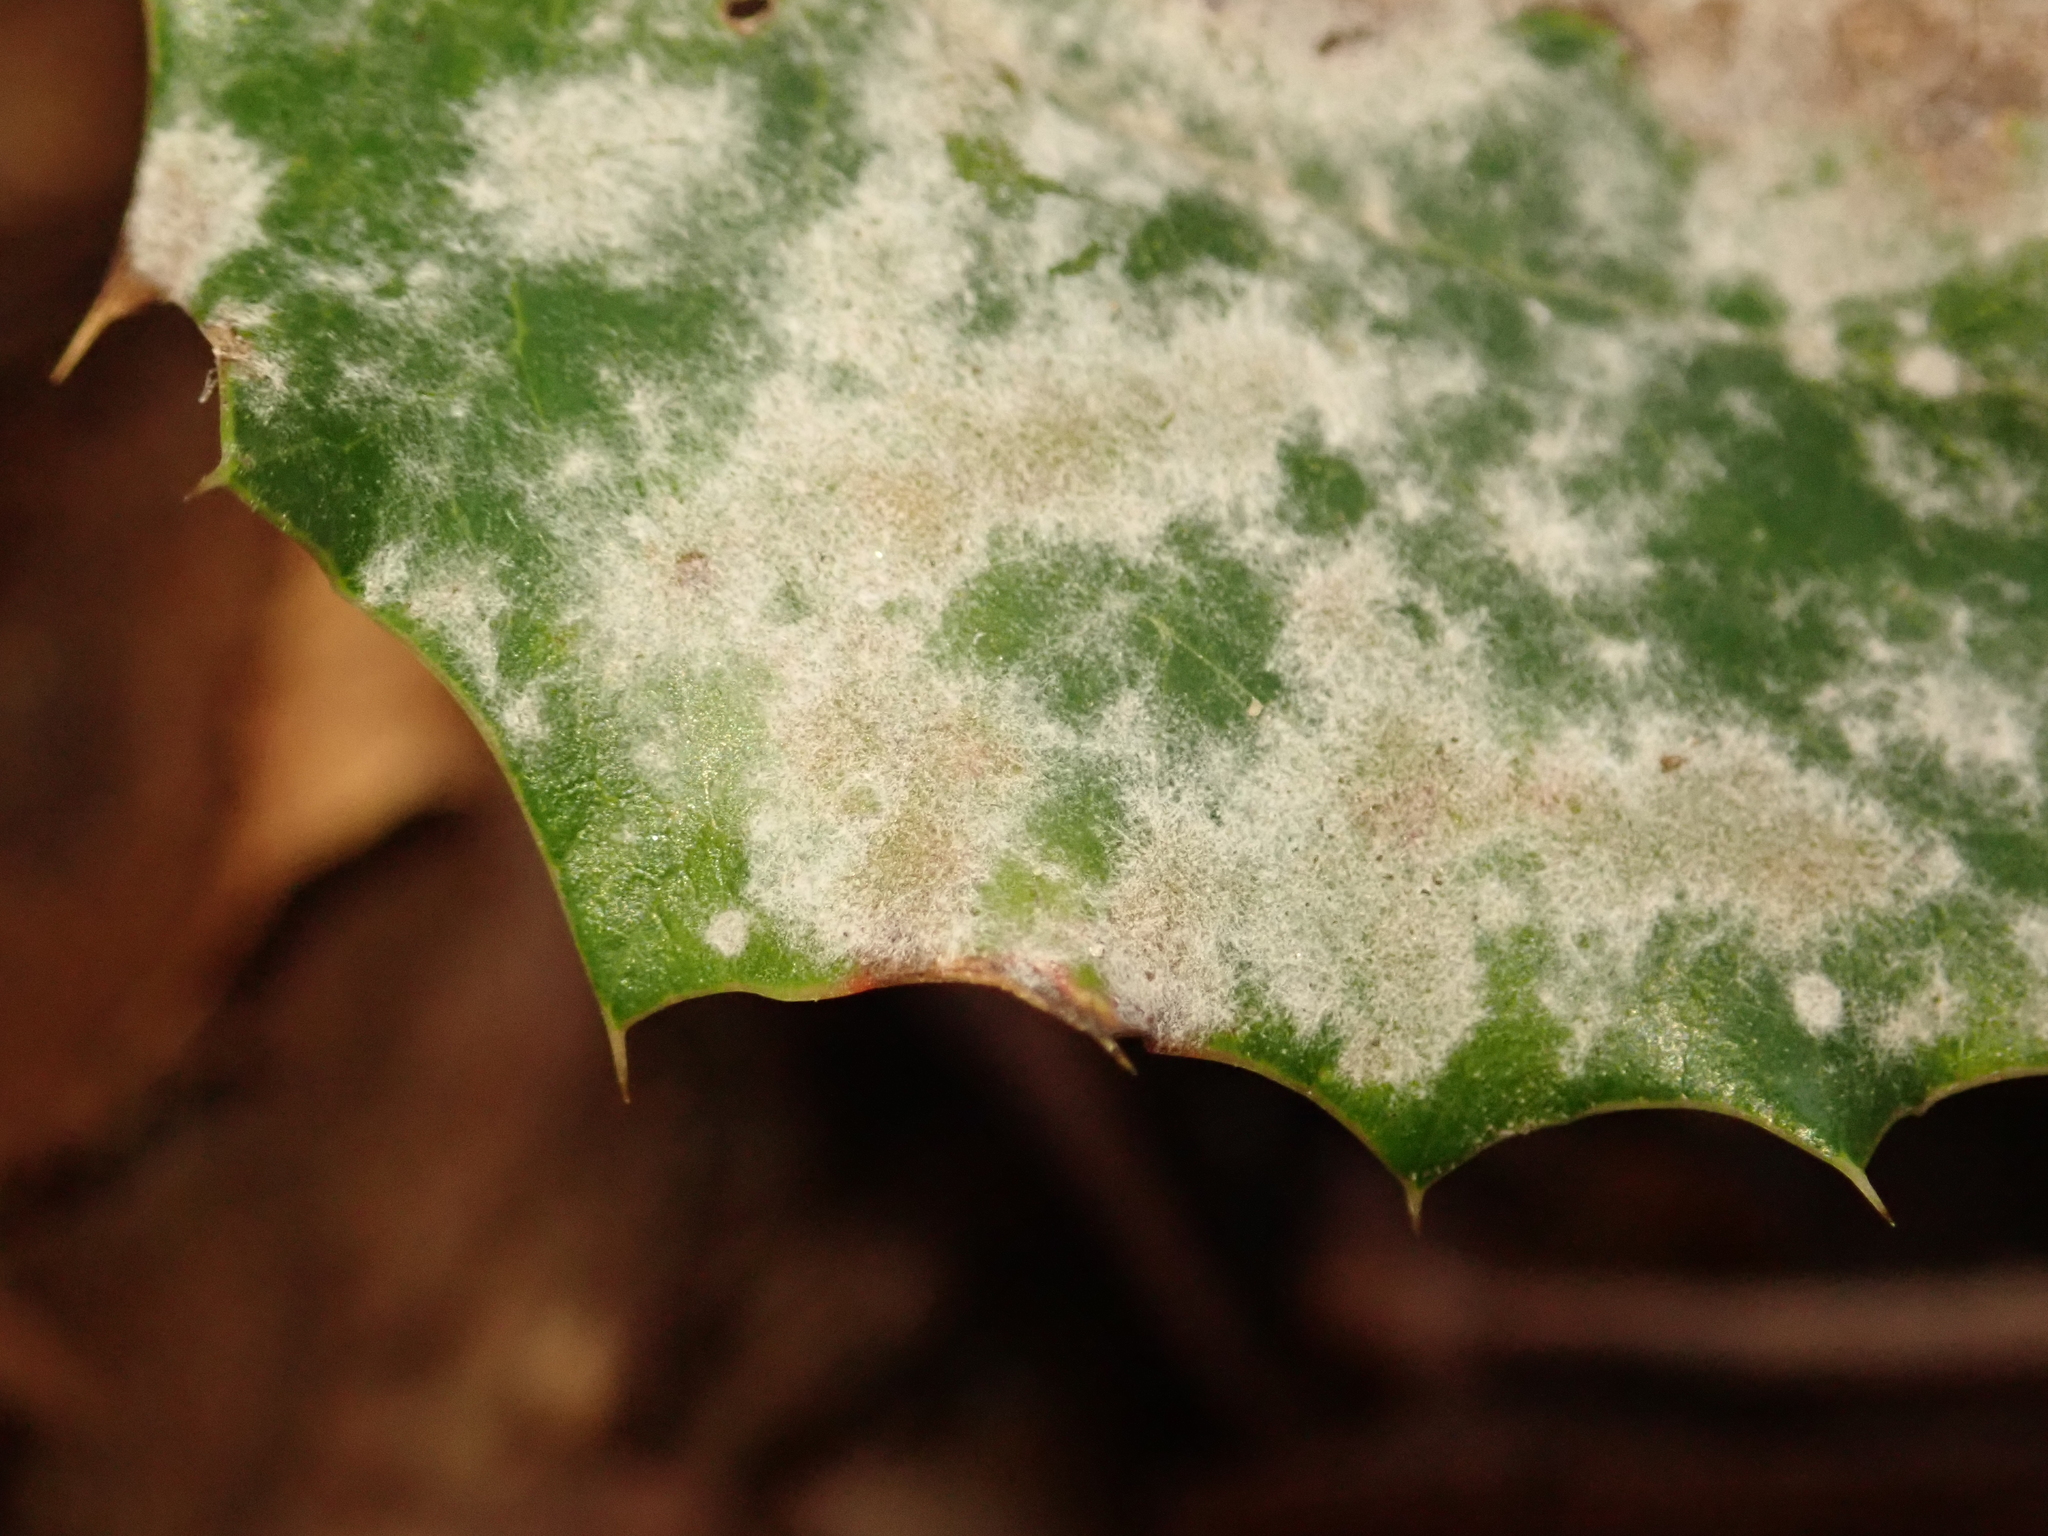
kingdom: Fungi
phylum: Ascomycota
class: Leotiomycetes
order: Helotiales
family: Erysiphaceae
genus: Erysiphe
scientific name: Erysiphe berberidis
